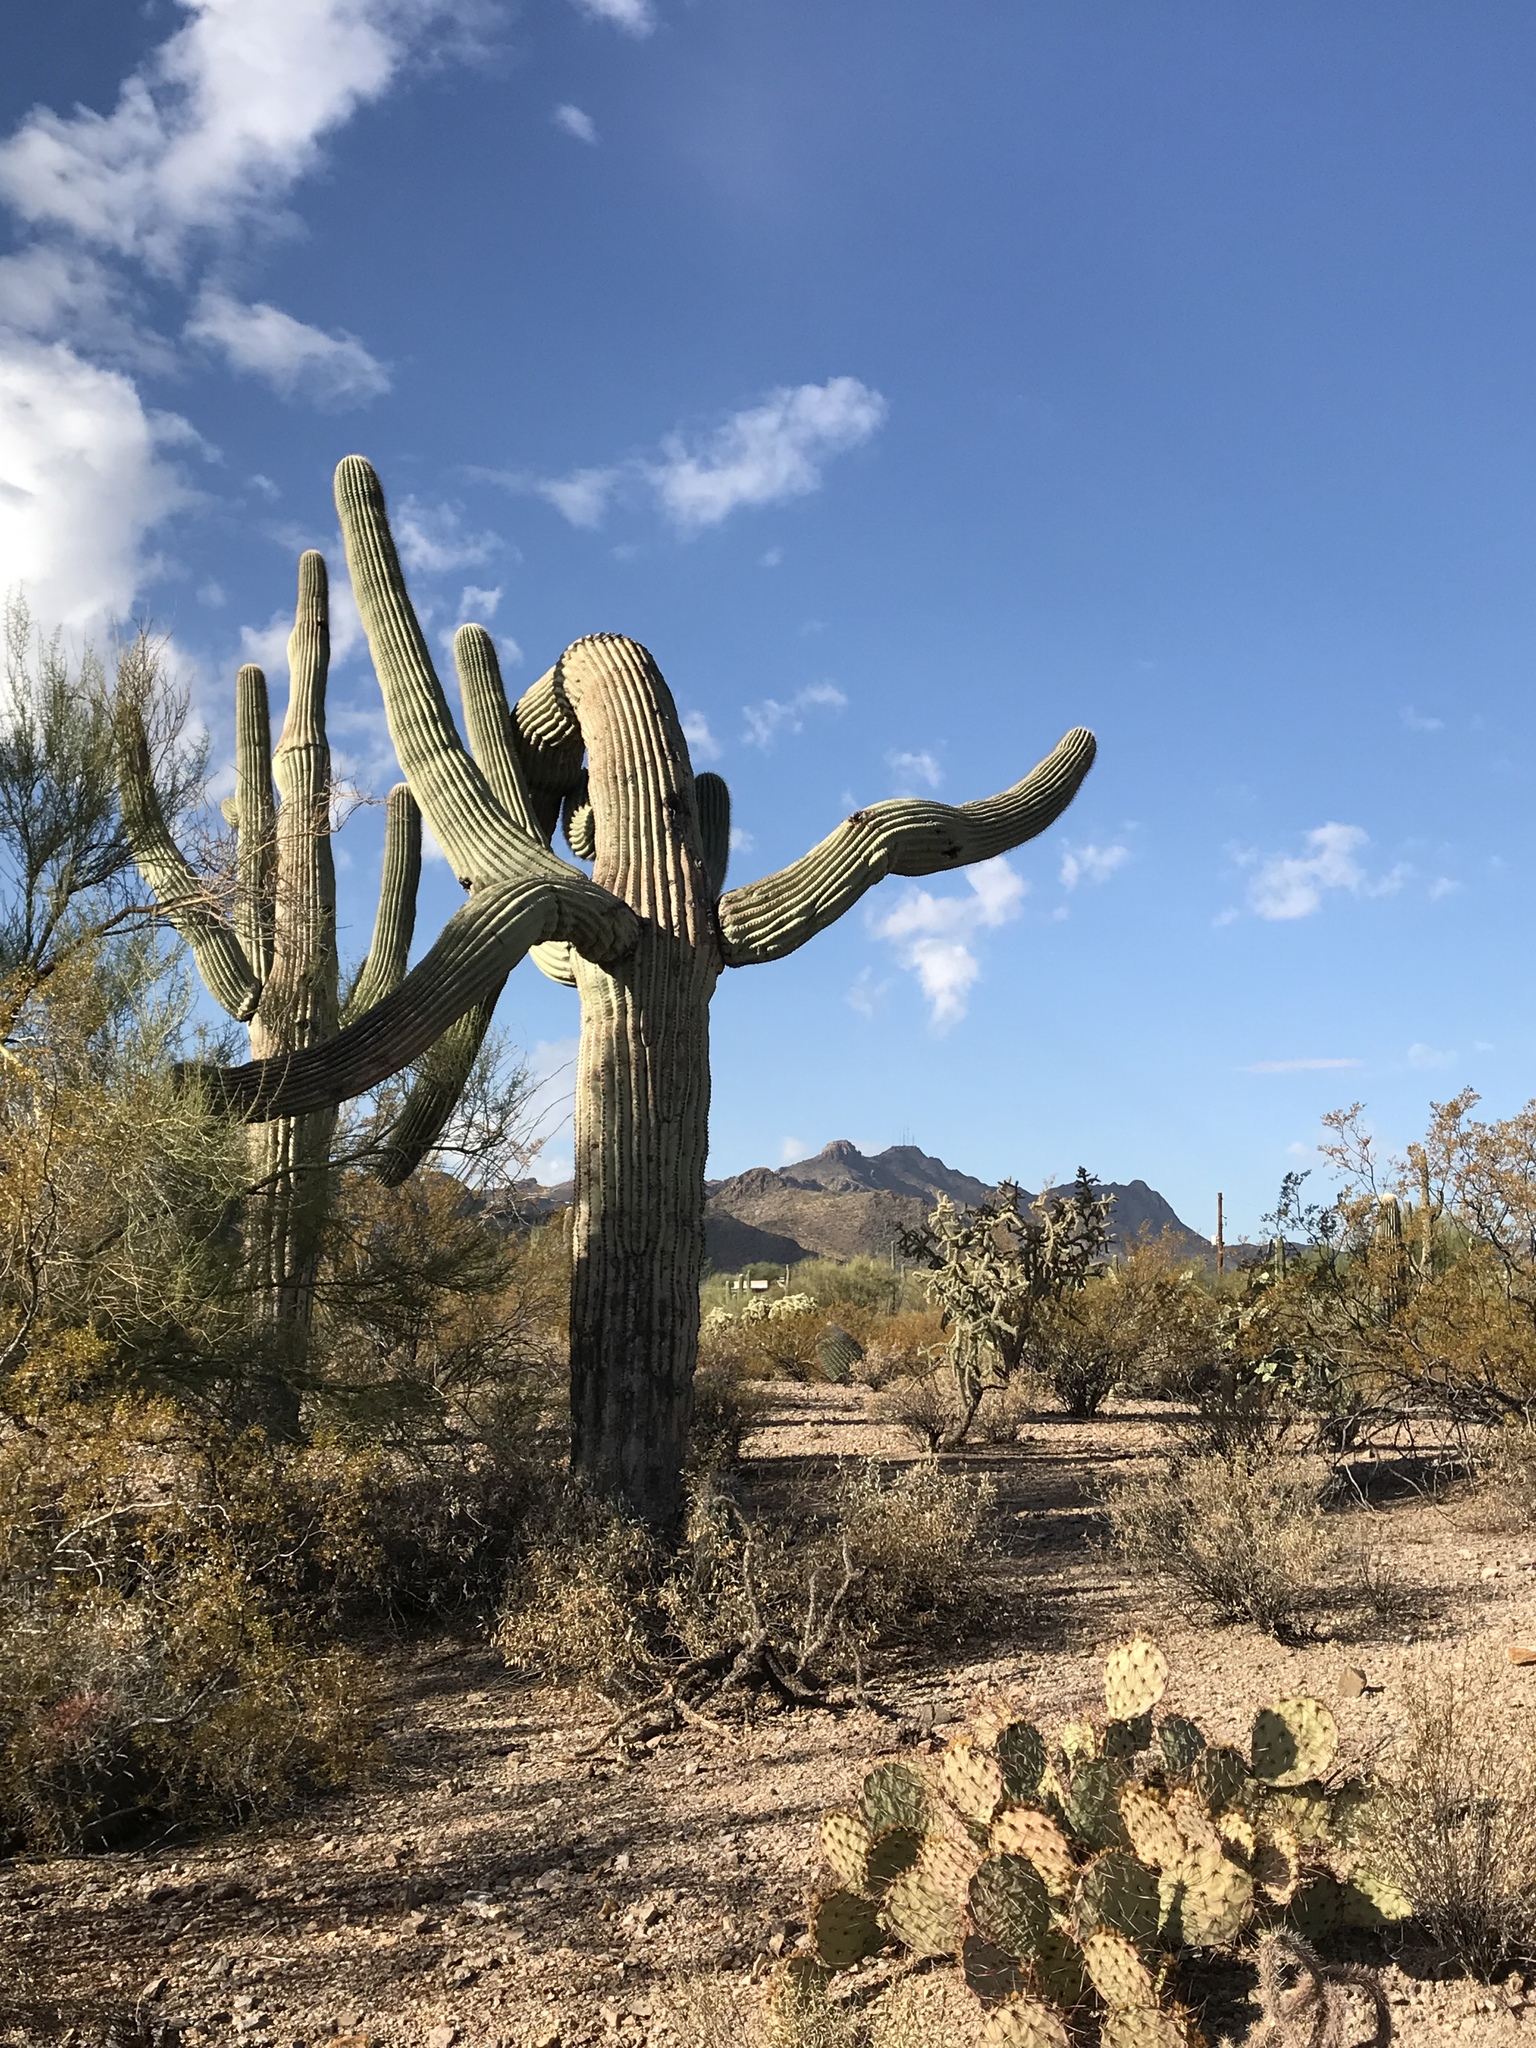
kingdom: Plantae
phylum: Tracheophyta
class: Magnoliopsida
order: Caryophyllales
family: Cactaceae
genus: Carnegiea
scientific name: Carnegiea gigantea
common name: Saguaro
